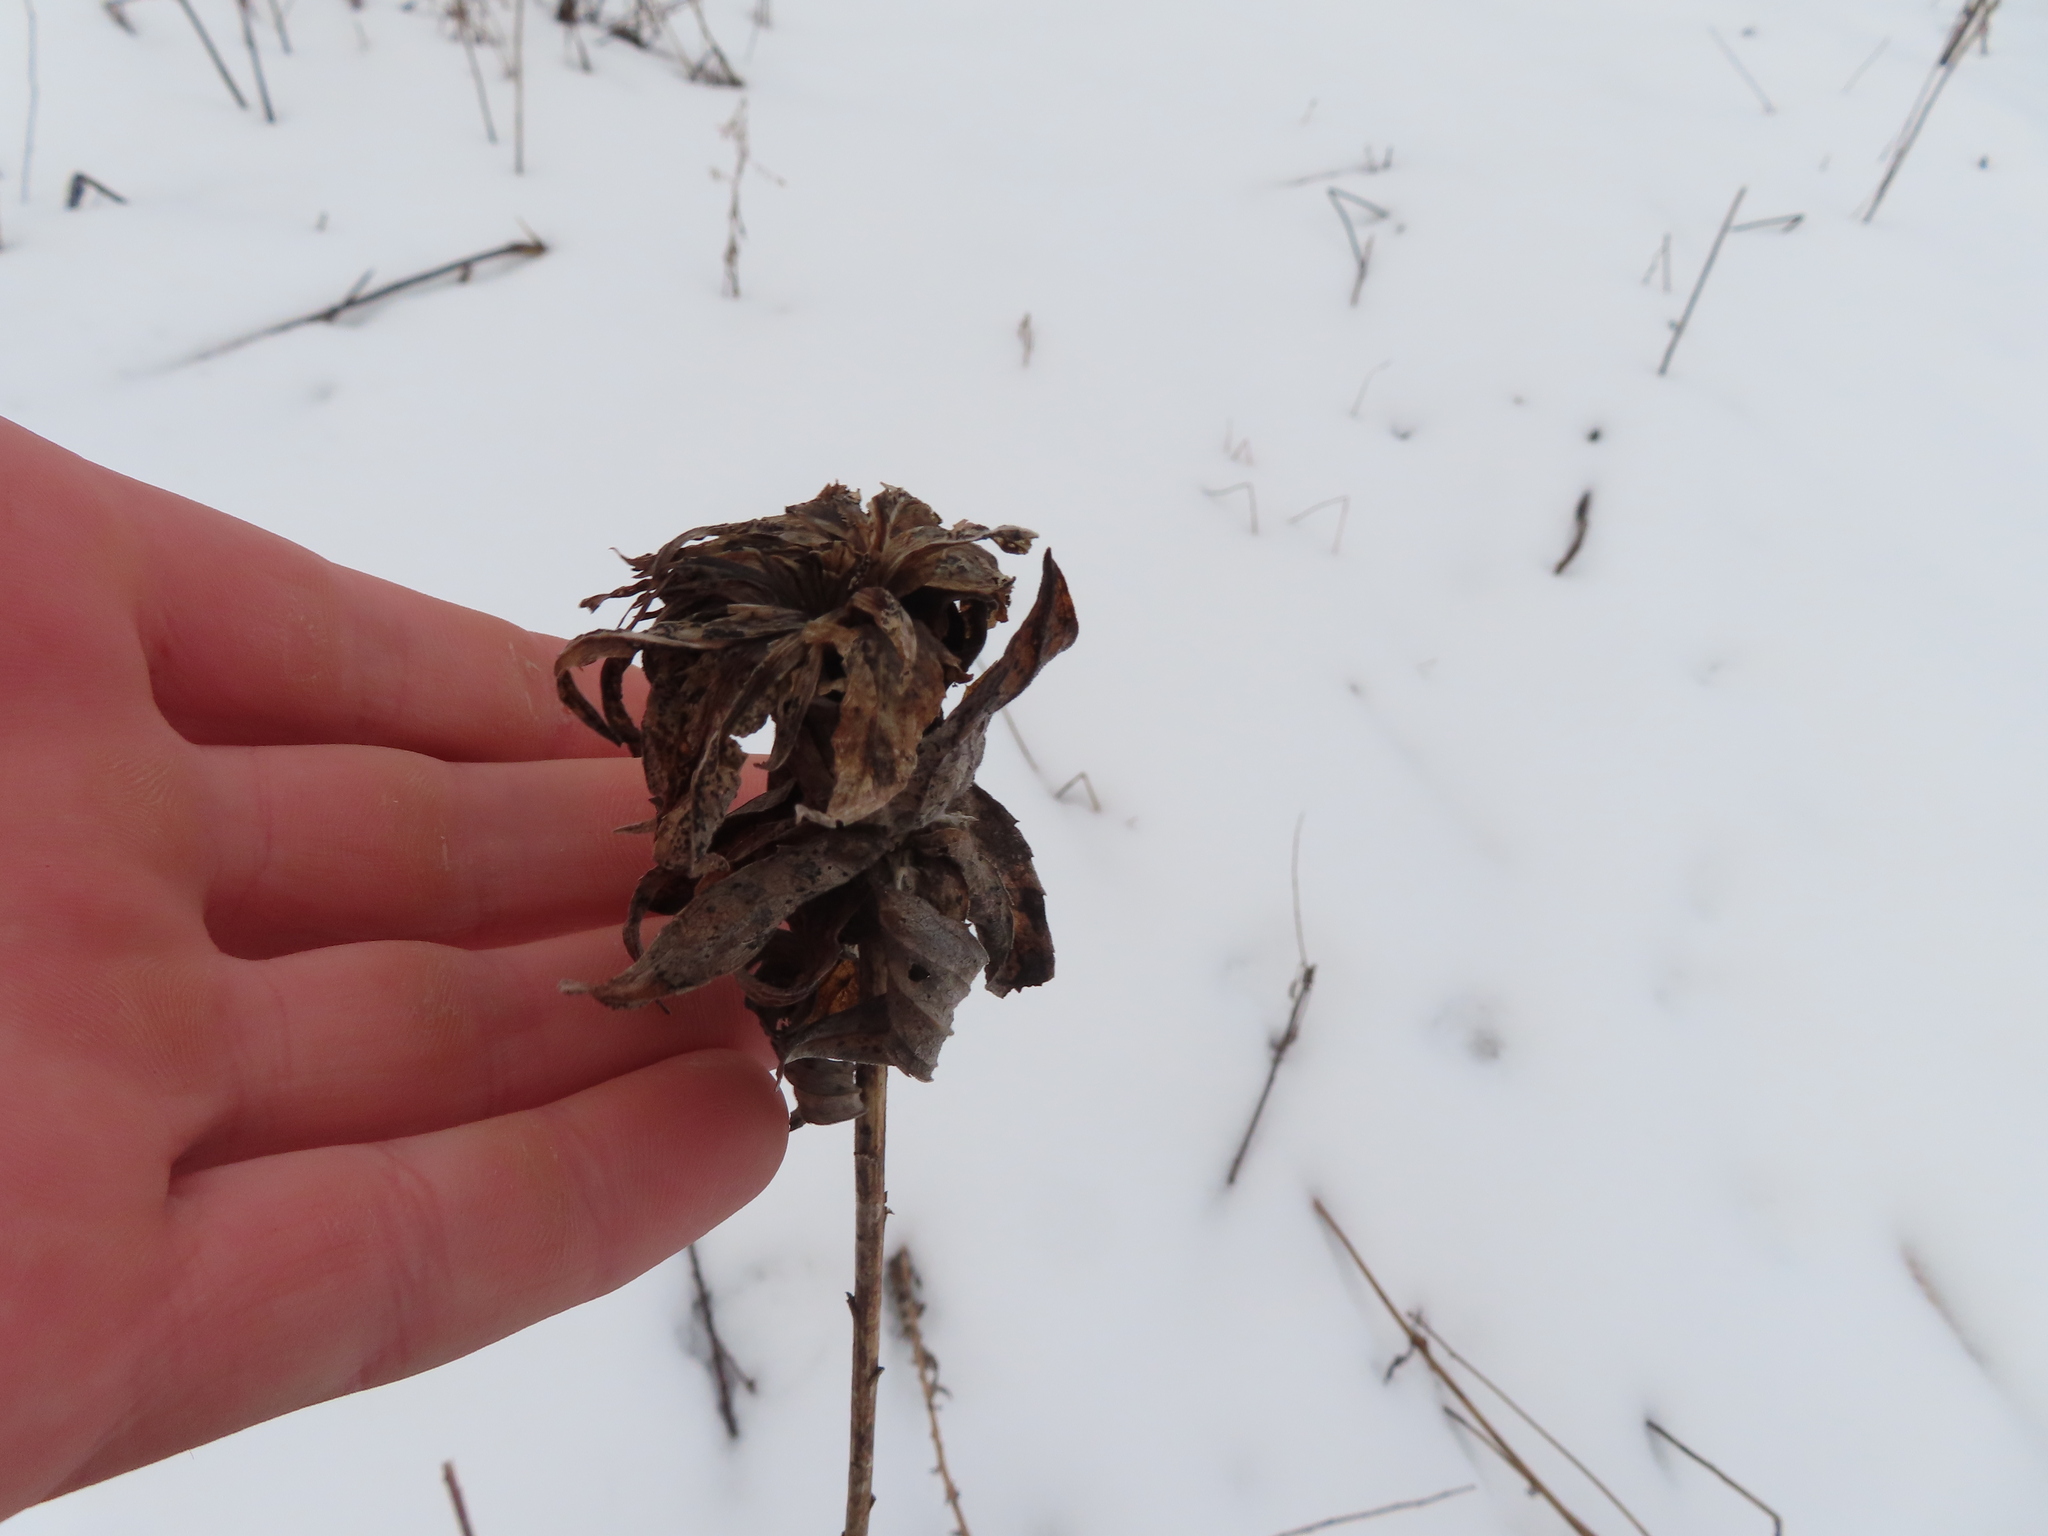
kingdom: Animalia
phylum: Arthropoda
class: Insecta
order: Diptera
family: Cecidomyiidae
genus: Rhopalomyia
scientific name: Rhopalomyia solidaginis
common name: Goldenrod bunch gall midge
